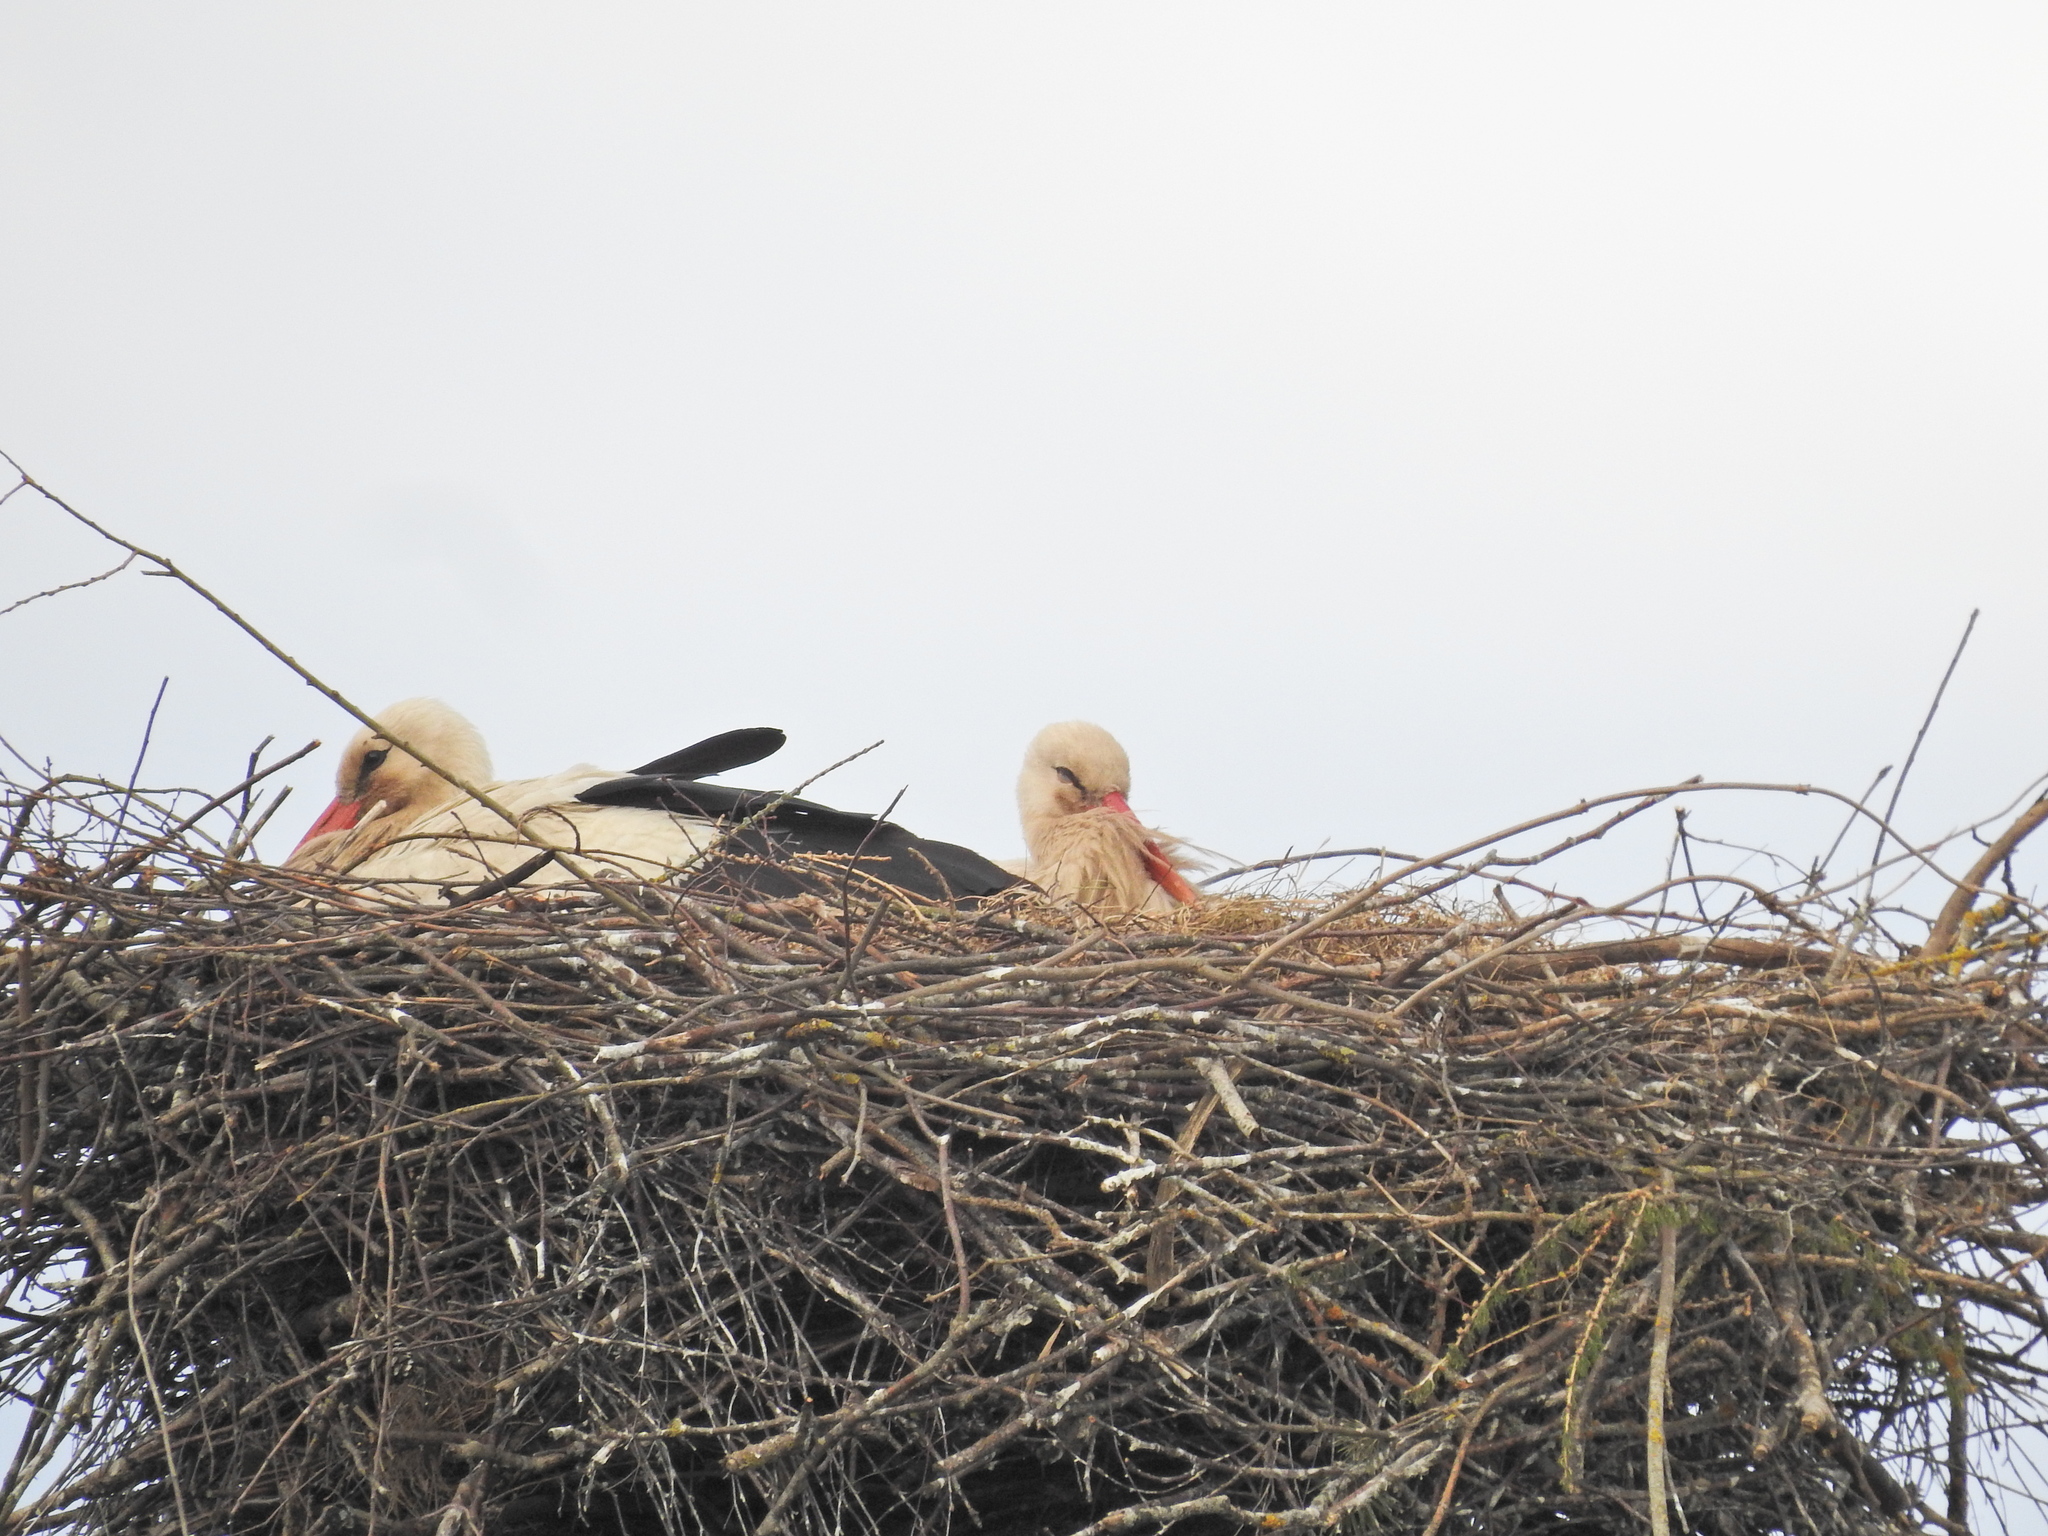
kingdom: Animalia
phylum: Chordata
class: Aves
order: Ciconiiformes
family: Ciconiidae
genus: Ciconia
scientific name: Ciconia ciconia
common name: White stork
